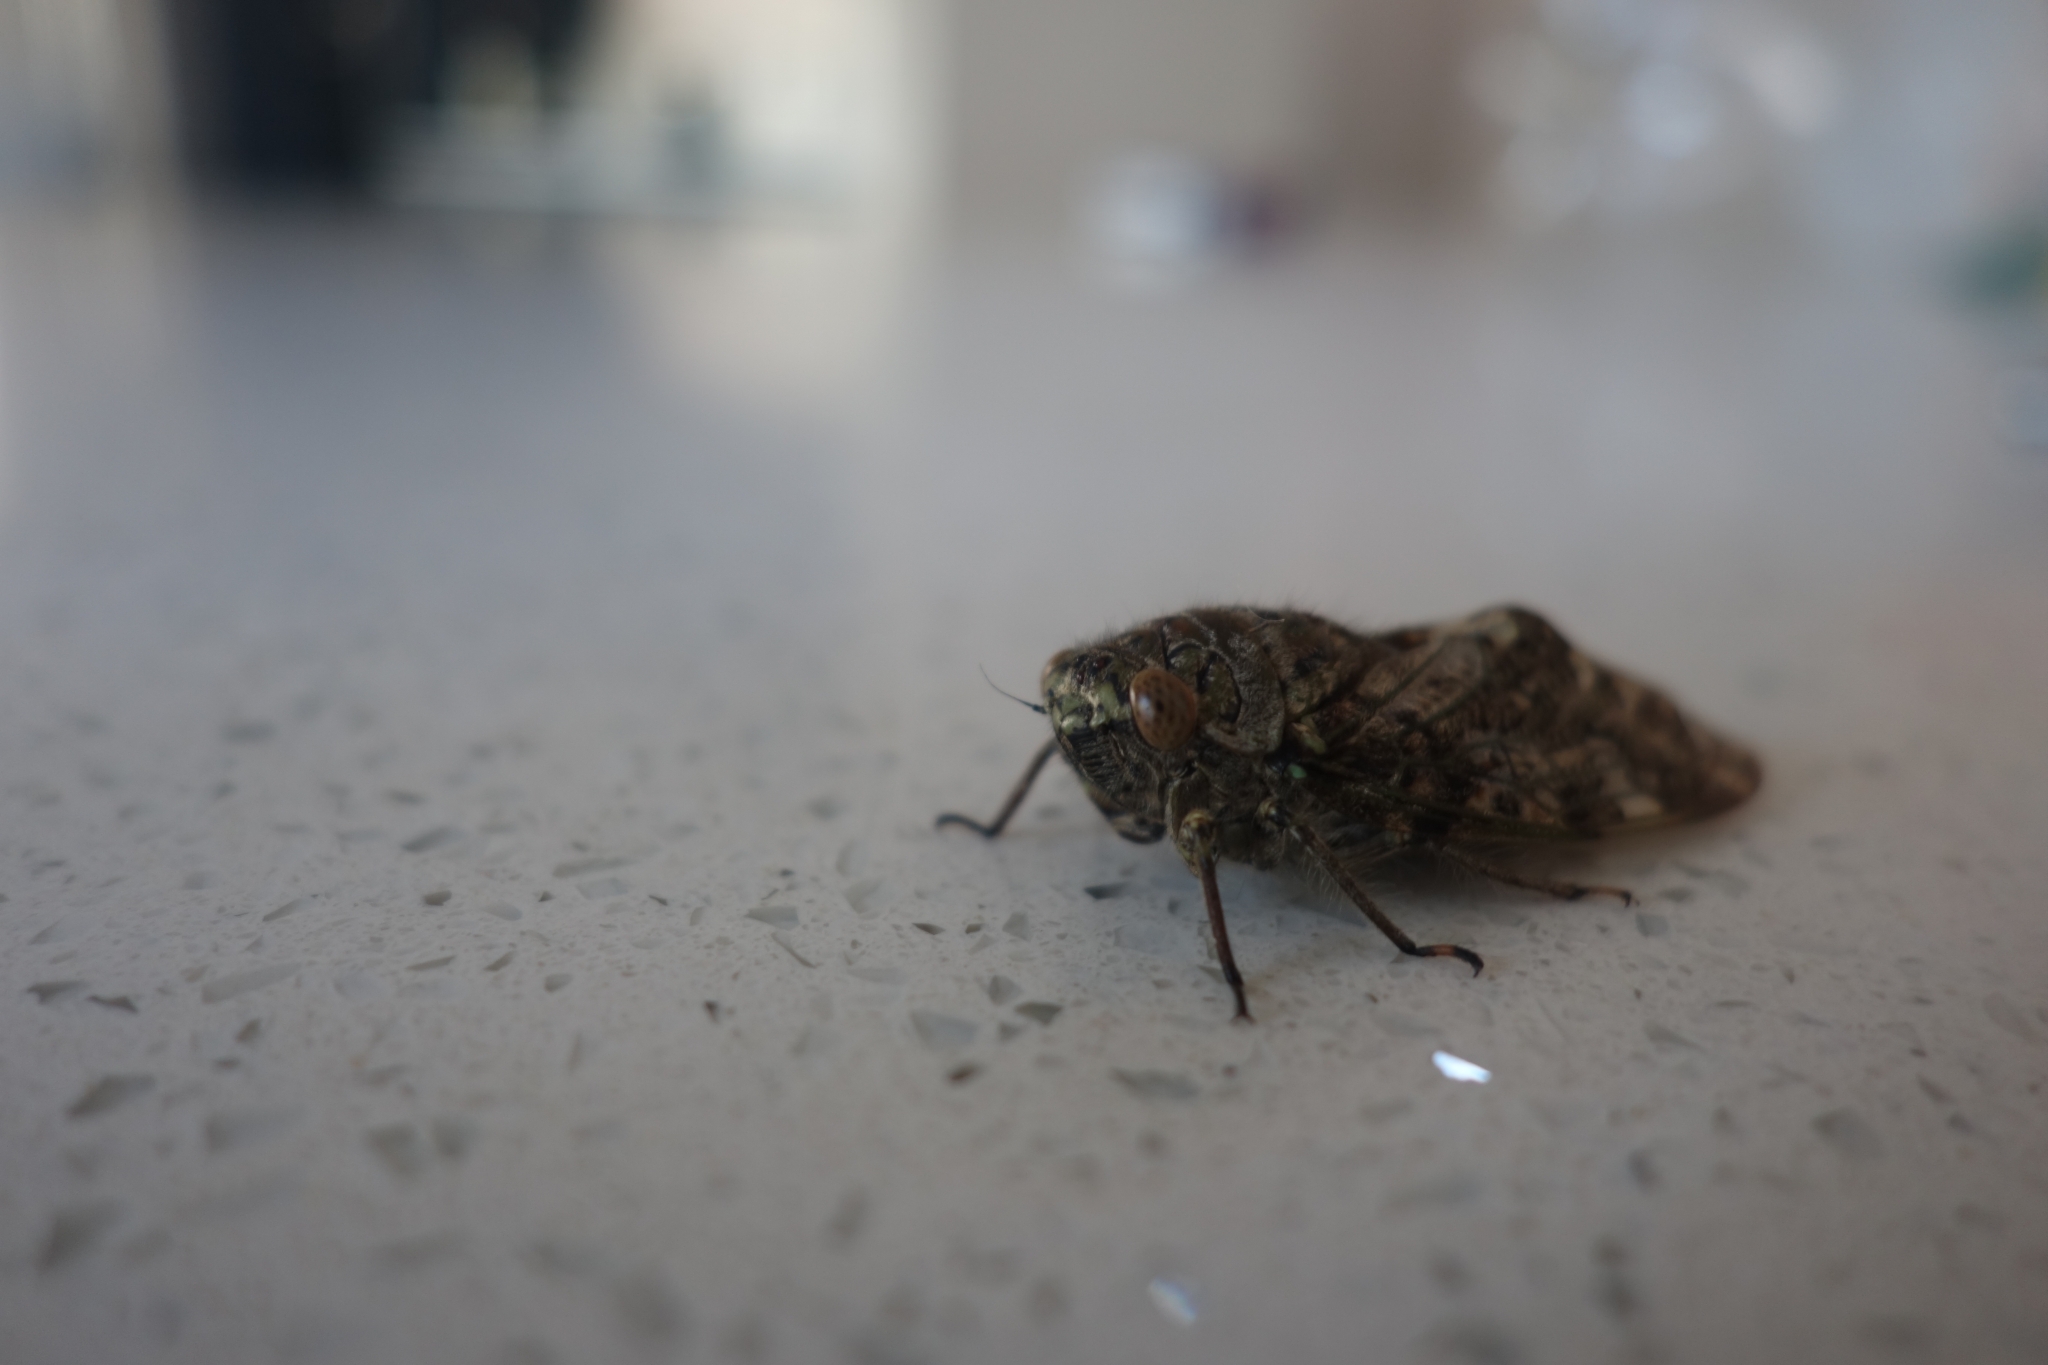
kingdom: Animalia
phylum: Arthropoda
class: Insecta
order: Hemiptera
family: Cicadidae
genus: Platypleura
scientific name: Platypleura zuluensis
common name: Dune koko orangewing cicada
